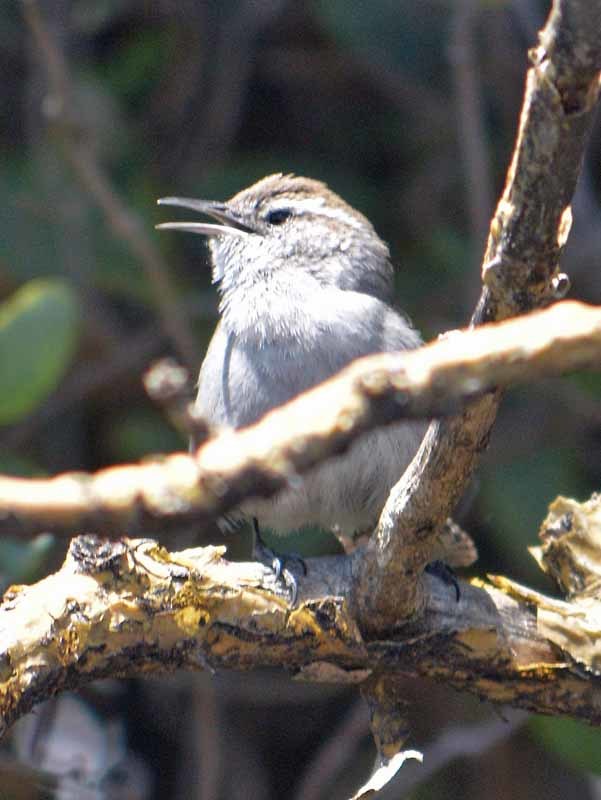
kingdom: Animalia
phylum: Chordata
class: Aves
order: Passeriformes
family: Troglodytidae
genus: Thryomanes
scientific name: Thryomanes bewickii
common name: Bewick's wren
